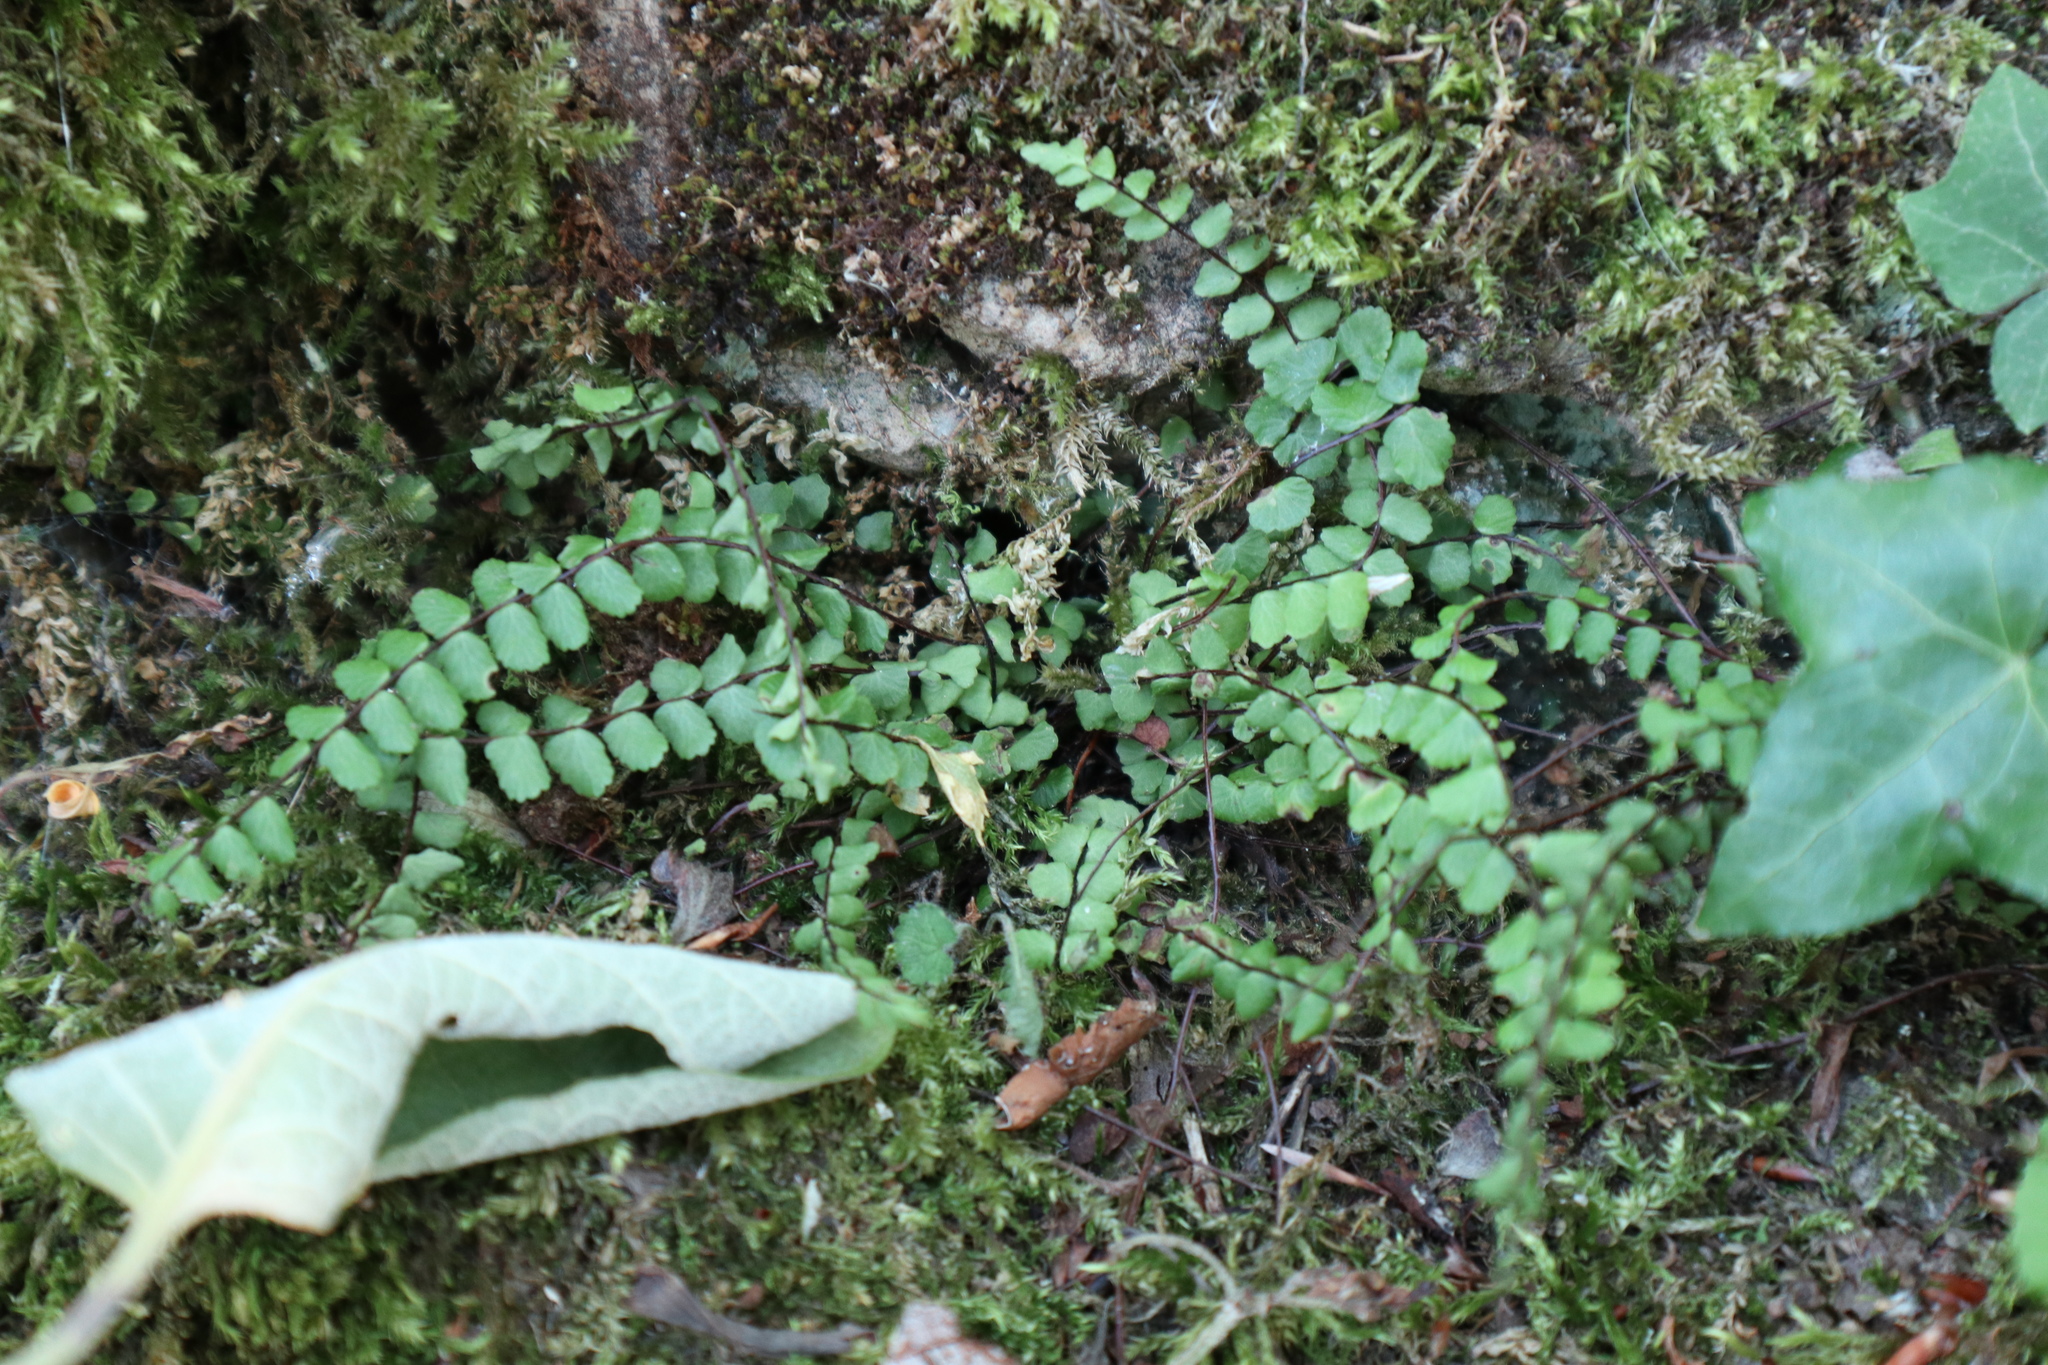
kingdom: Plantae
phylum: Tracheophyta
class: Polypodiopsida
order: Polypodiales
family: Aspleniaceae
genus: Asplenium
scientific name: Asplenium trichomanes
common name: Maidenhair spleenwort
